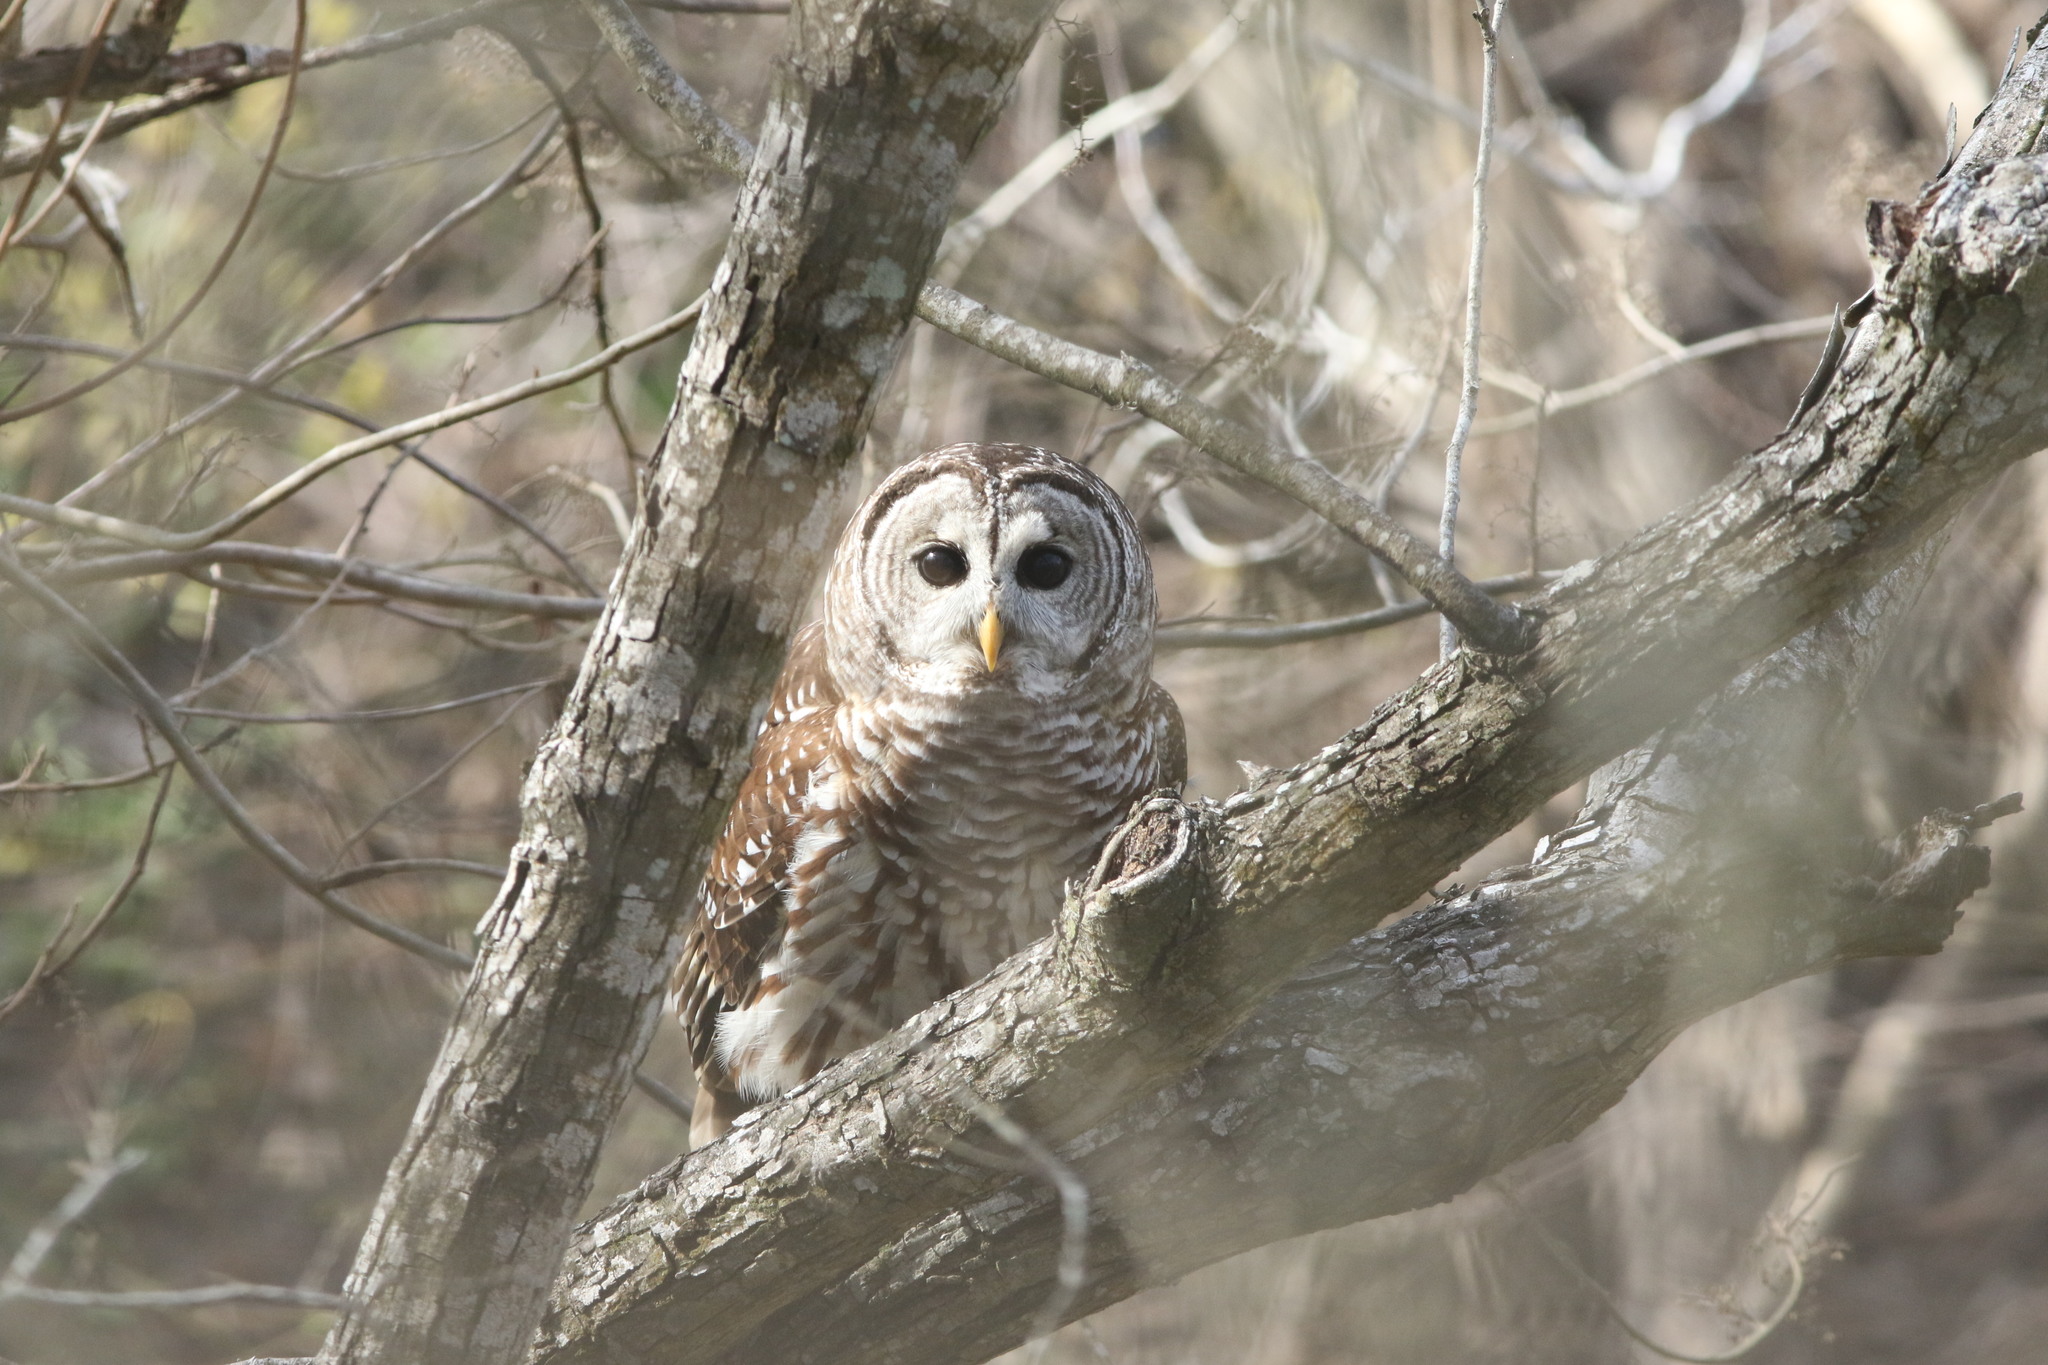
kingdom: Animalia
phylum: Chordata
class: Aves
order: Strigiformes
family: Strigidae
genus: Strix
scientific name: Strix varia
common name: Barred owl
